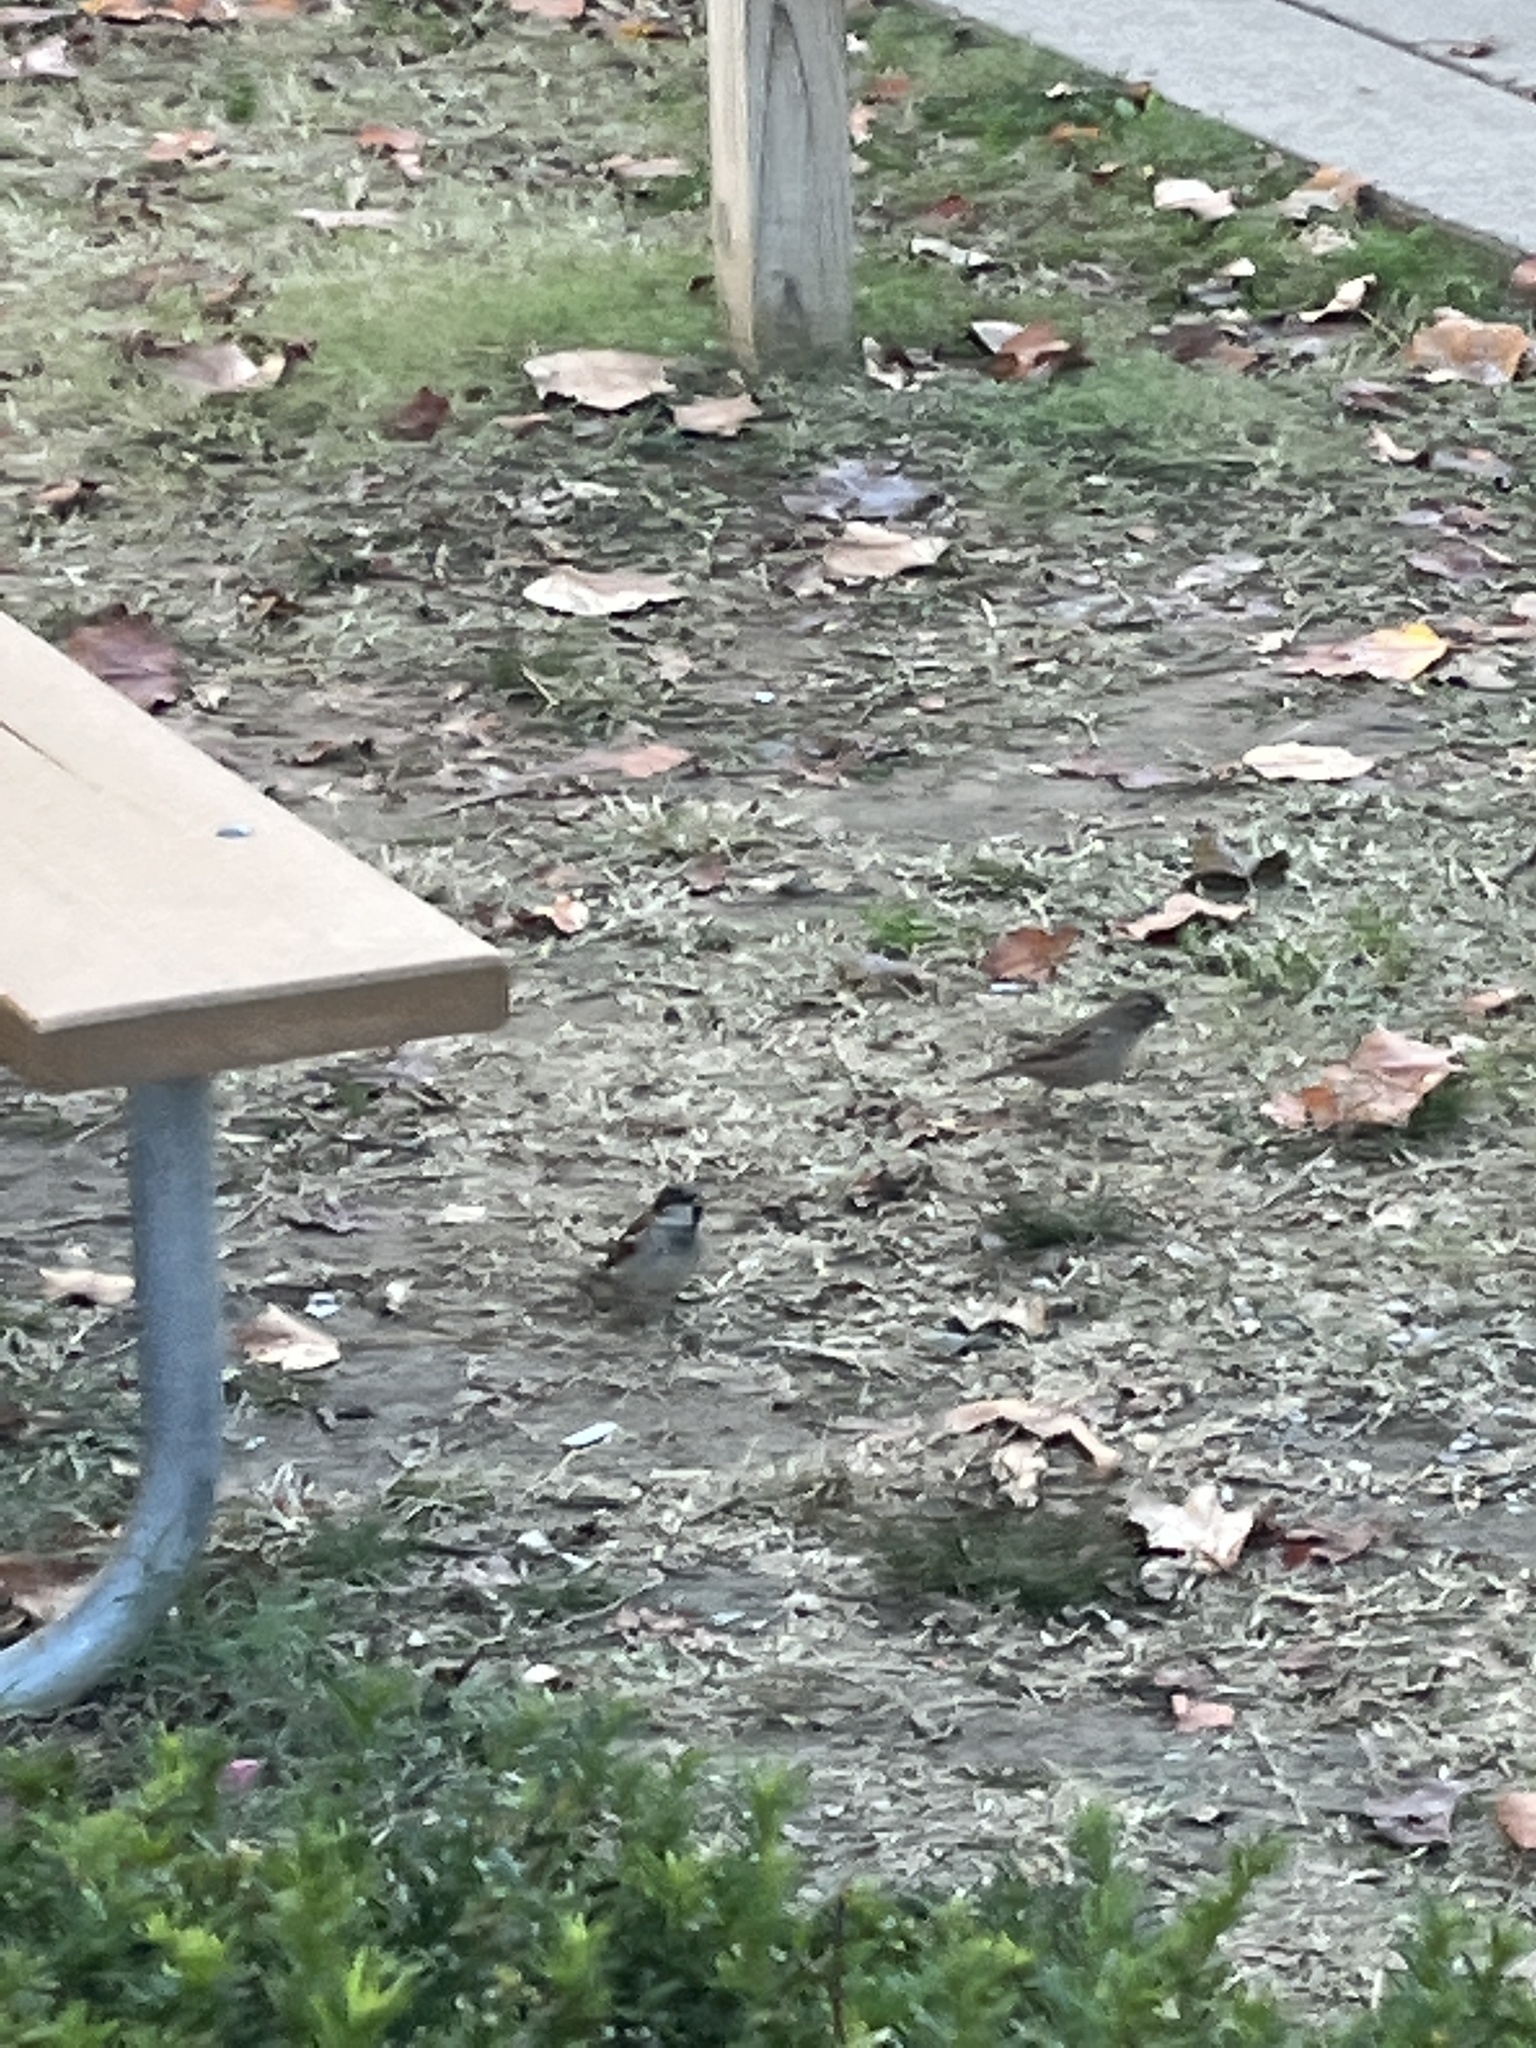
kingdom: Animalia
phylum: Chordata
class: Aves
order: Passeriformes
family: Passeridae
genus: Passer
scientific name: Passer domesticus
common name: House sparrow
